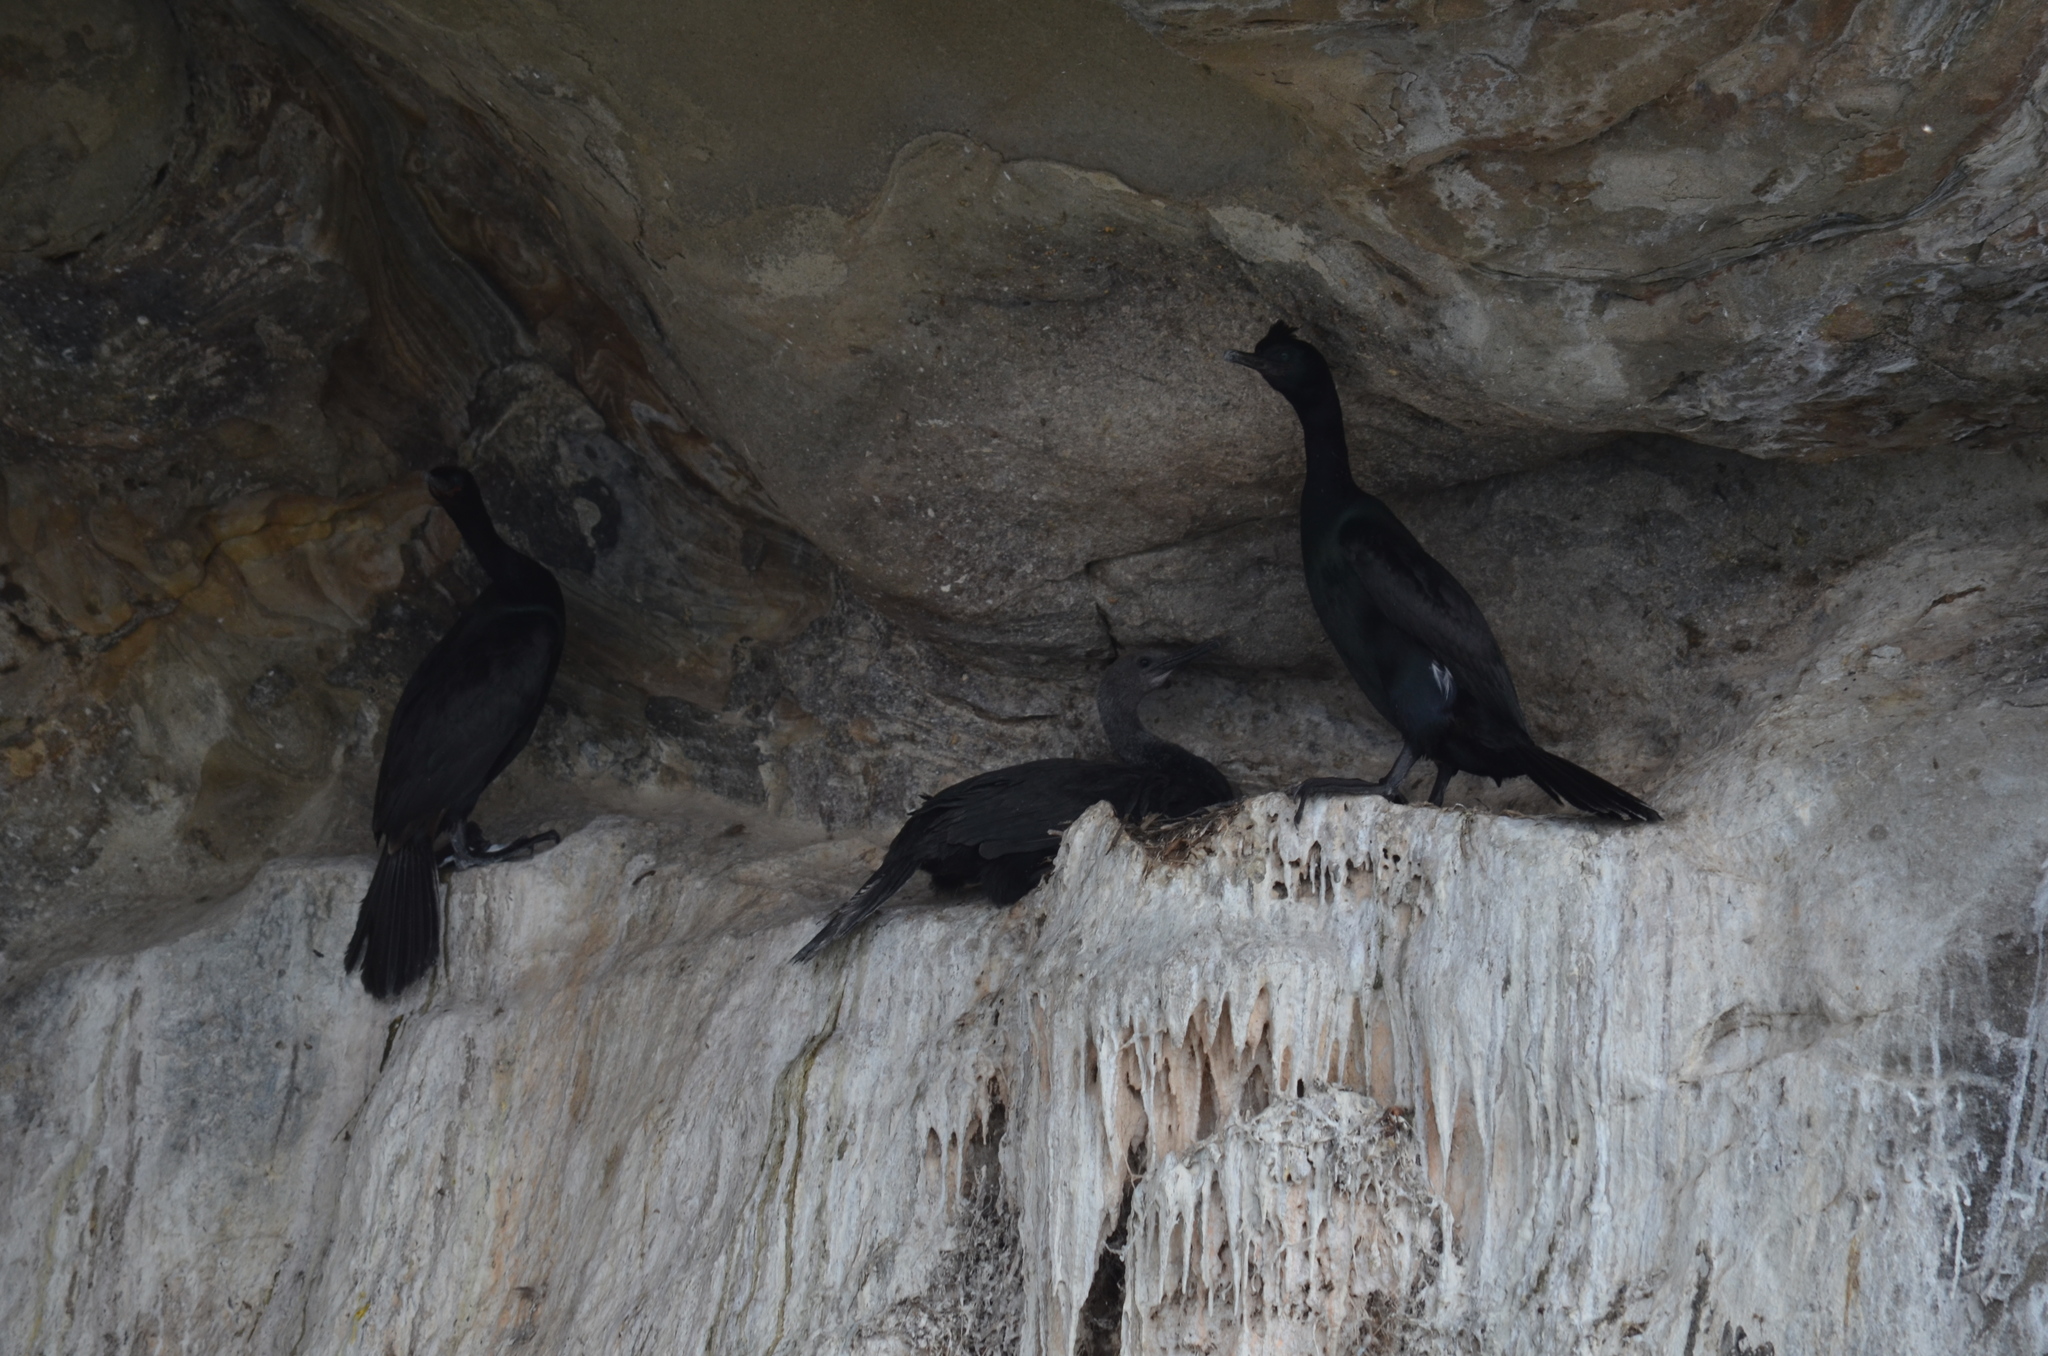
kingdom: Animalia
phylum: Chordata
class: Aves
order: Suliformes
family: Phalacrocoracidae
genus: Phalacrocorax
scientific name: Phalacrocorax pelagicus
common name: Pelagic cormorant
